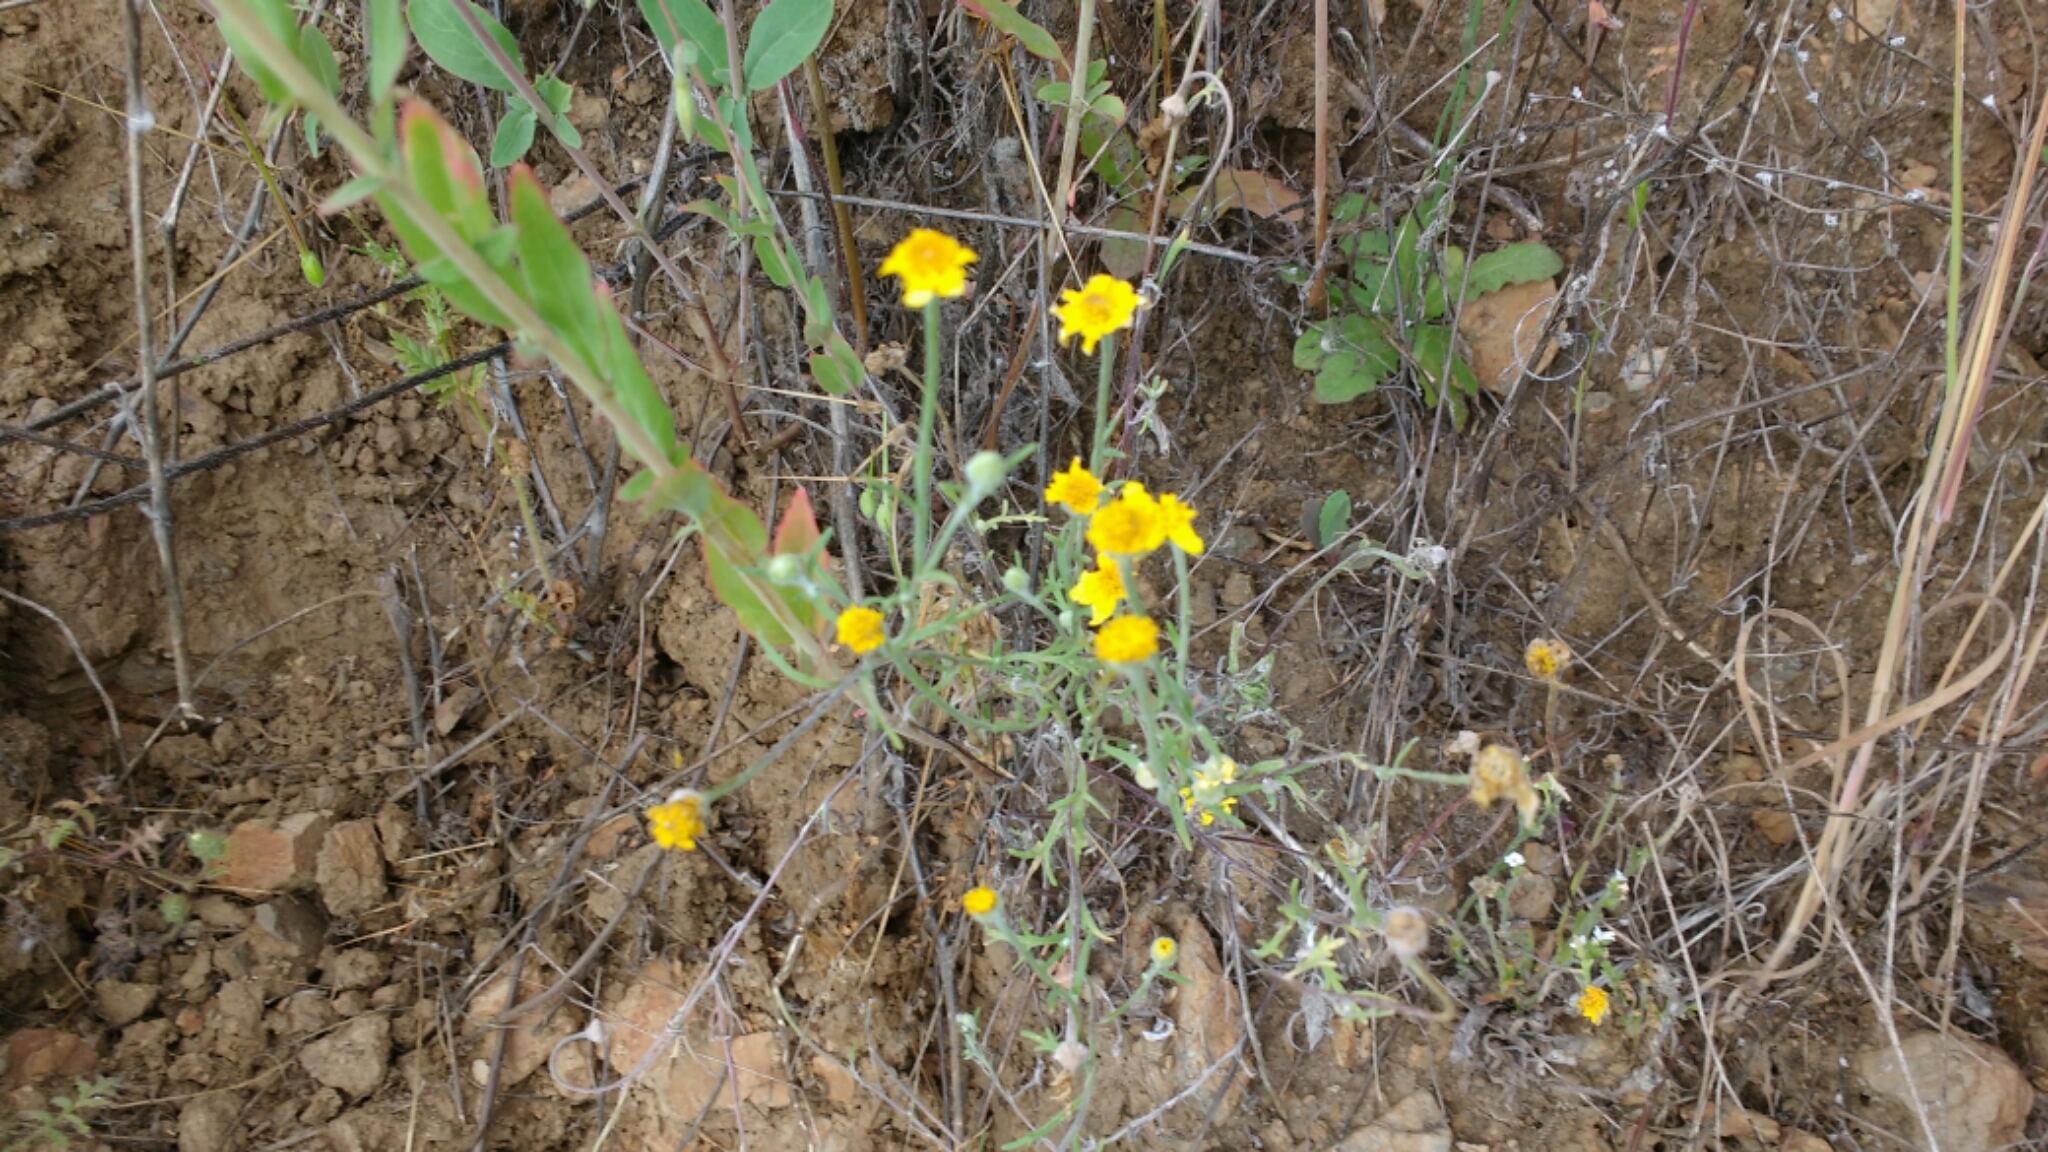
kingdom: Plantae
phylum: Tracheophyta
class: Magnoliopsida
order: Asterales
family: Asteraceae
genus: Pseudobahia
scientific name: Pseudobahia heermannii
